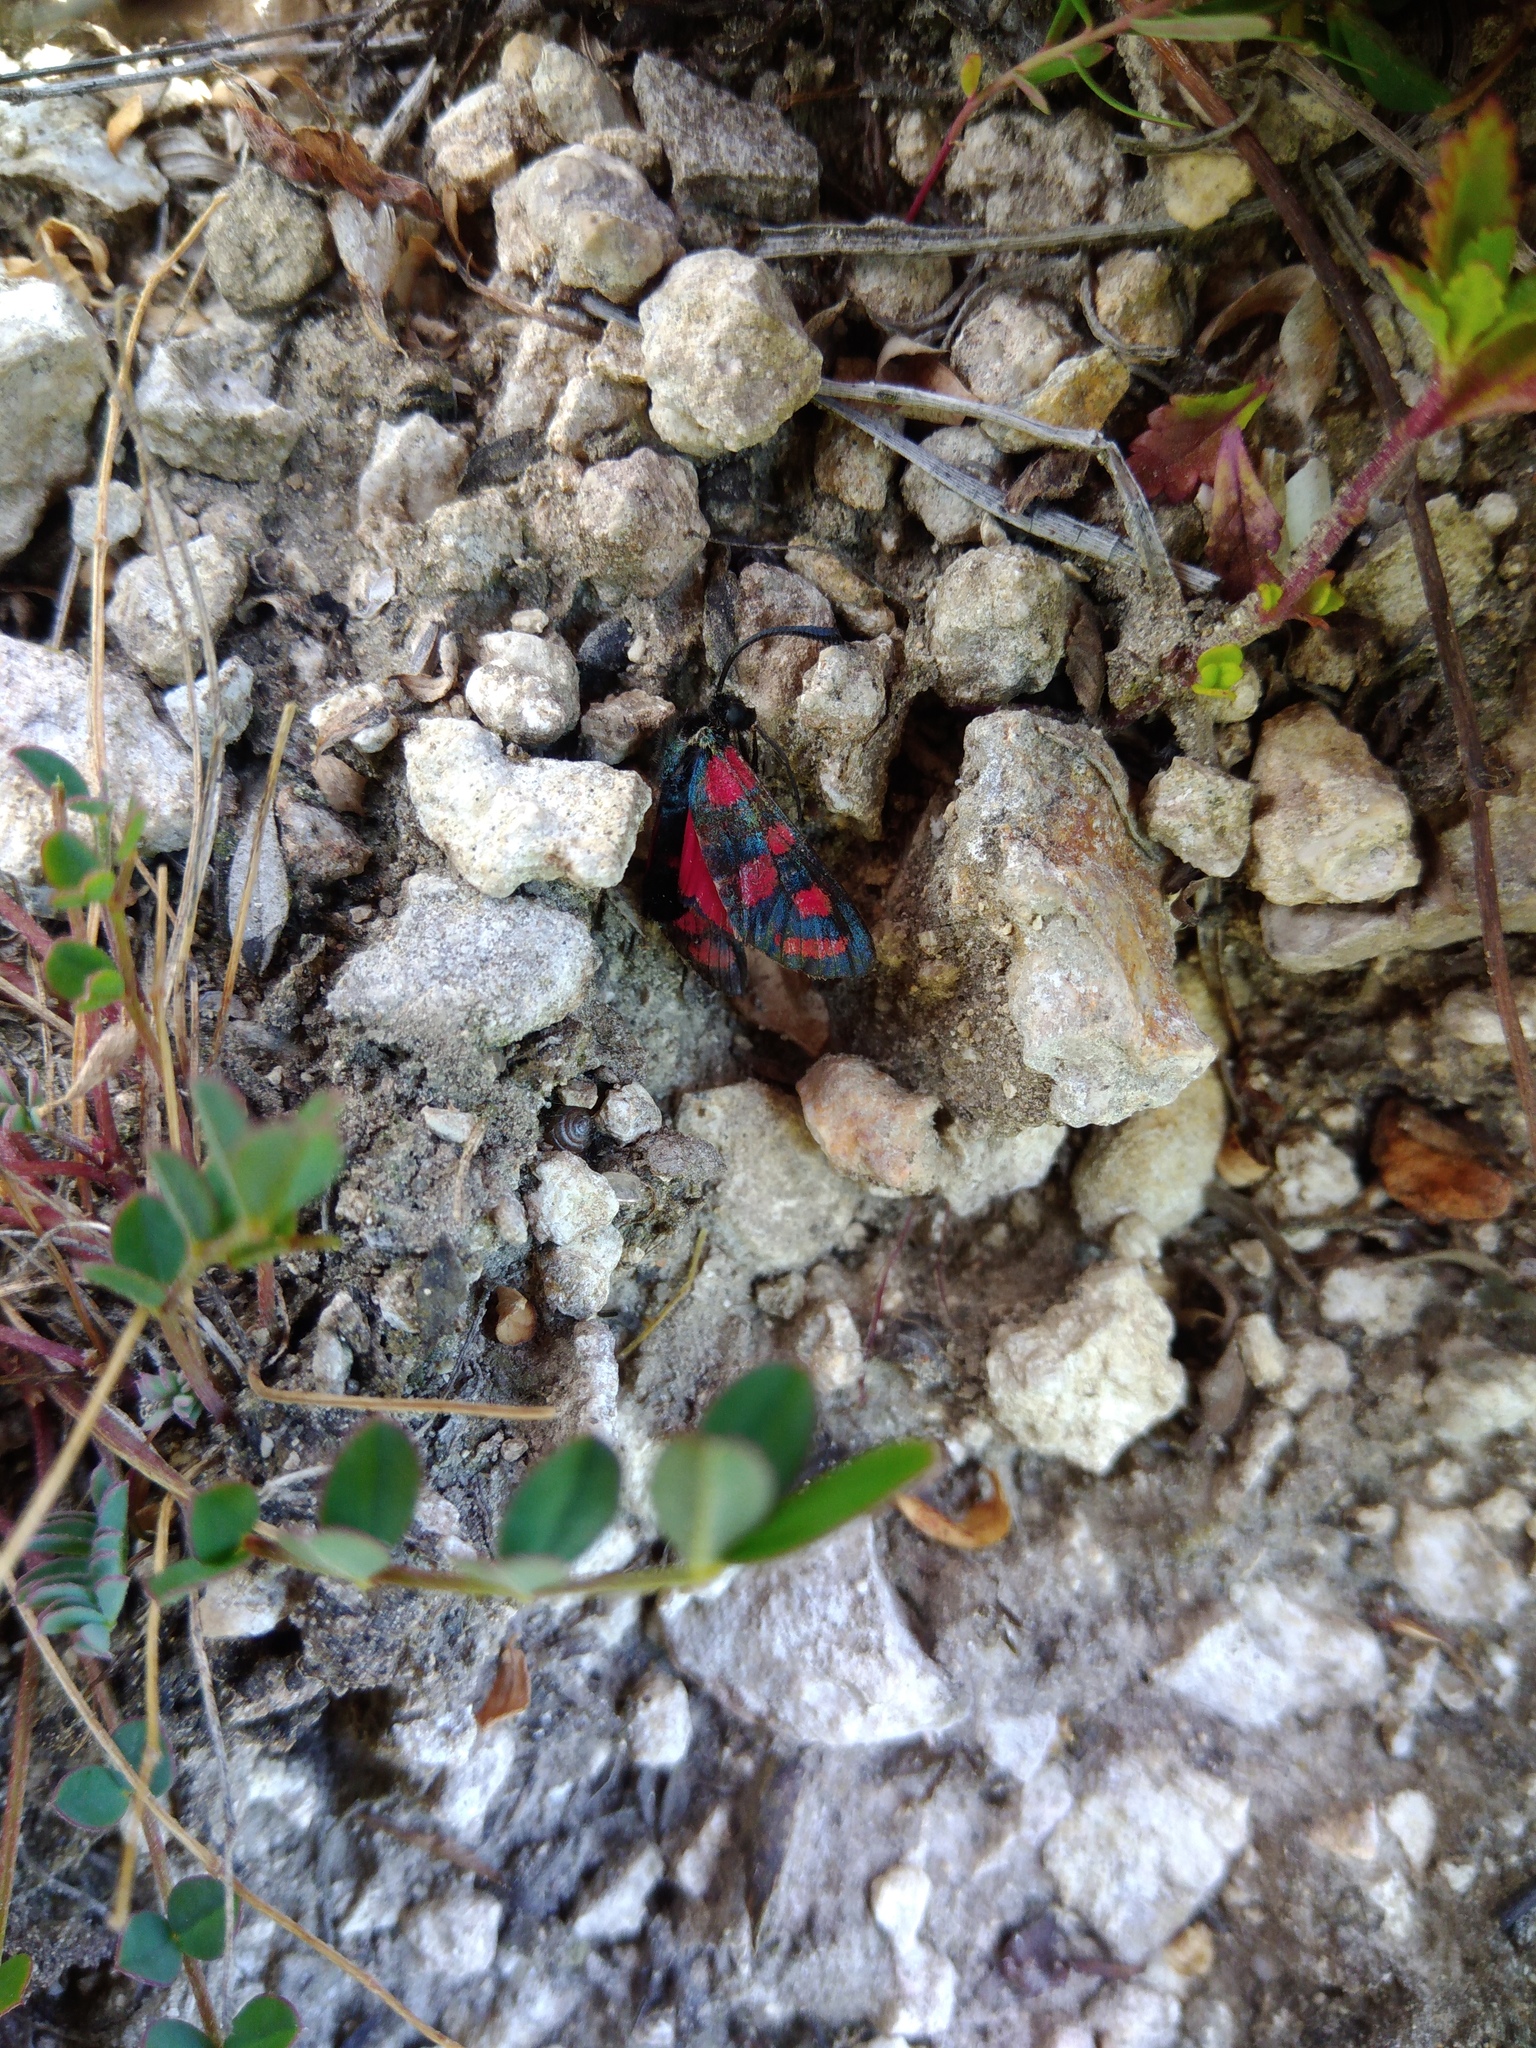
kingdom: Animalia
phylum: Arthropoda
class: Insecta
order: Lepidoptera
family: Zygaenidae
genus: Zygaena
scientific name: Zygaena carniolica
